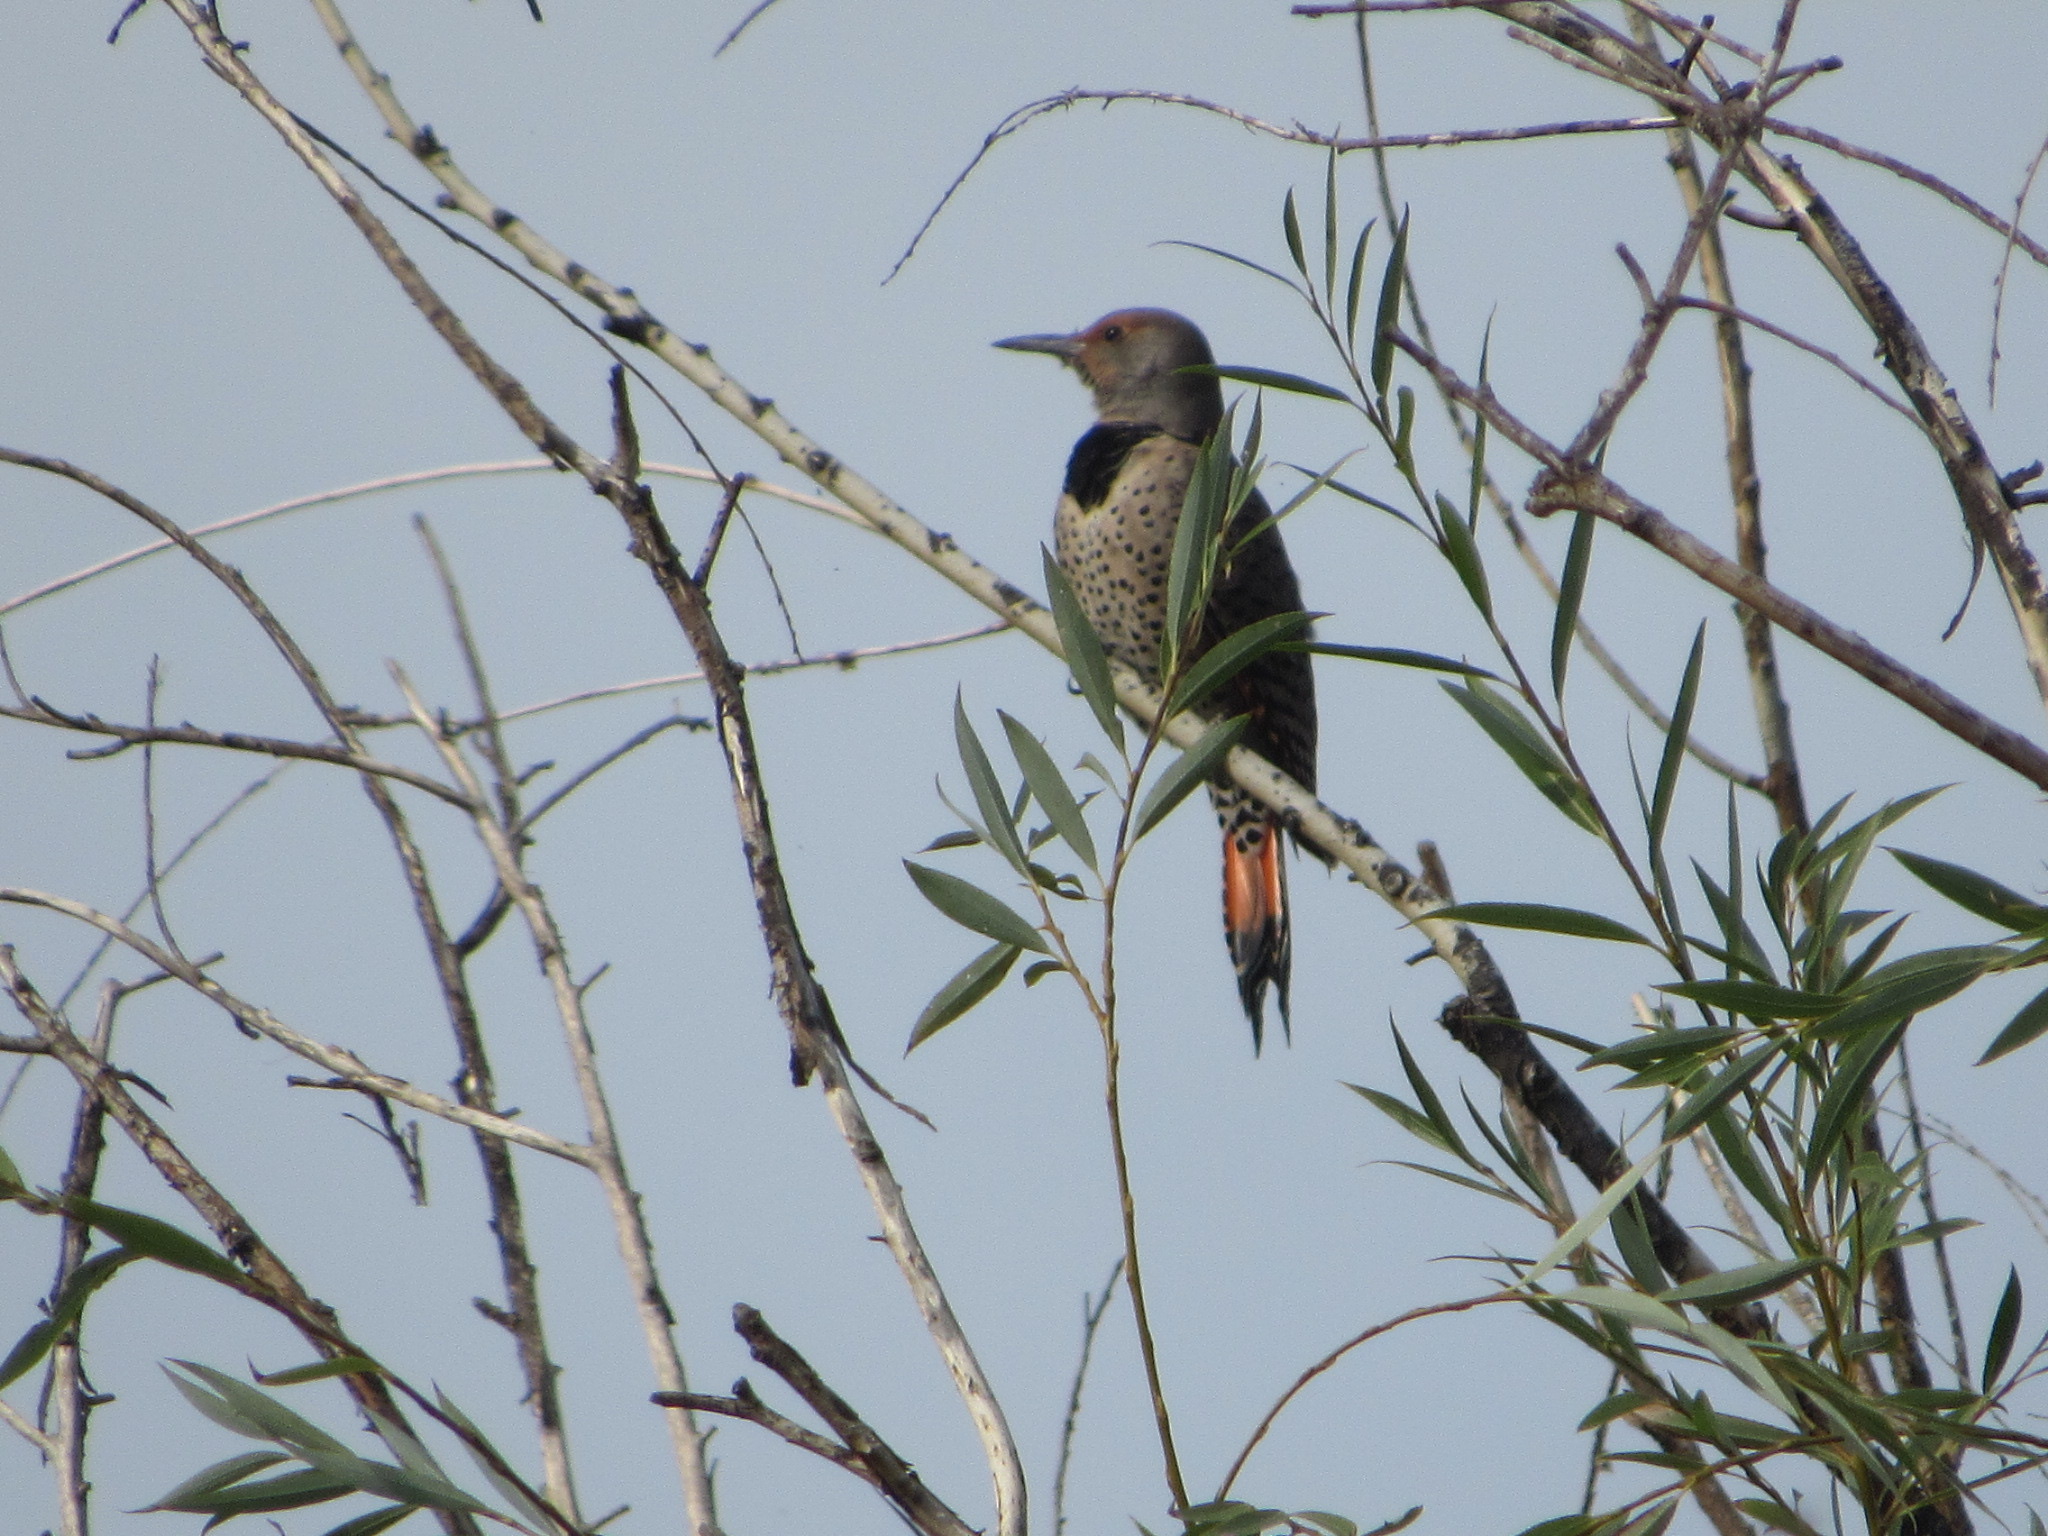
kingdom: Animalia
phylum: Chordata
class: Aves
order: Piciformes
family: Picidae
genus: Colaptes
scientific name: Colaptes auratus
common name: Northern flicker
